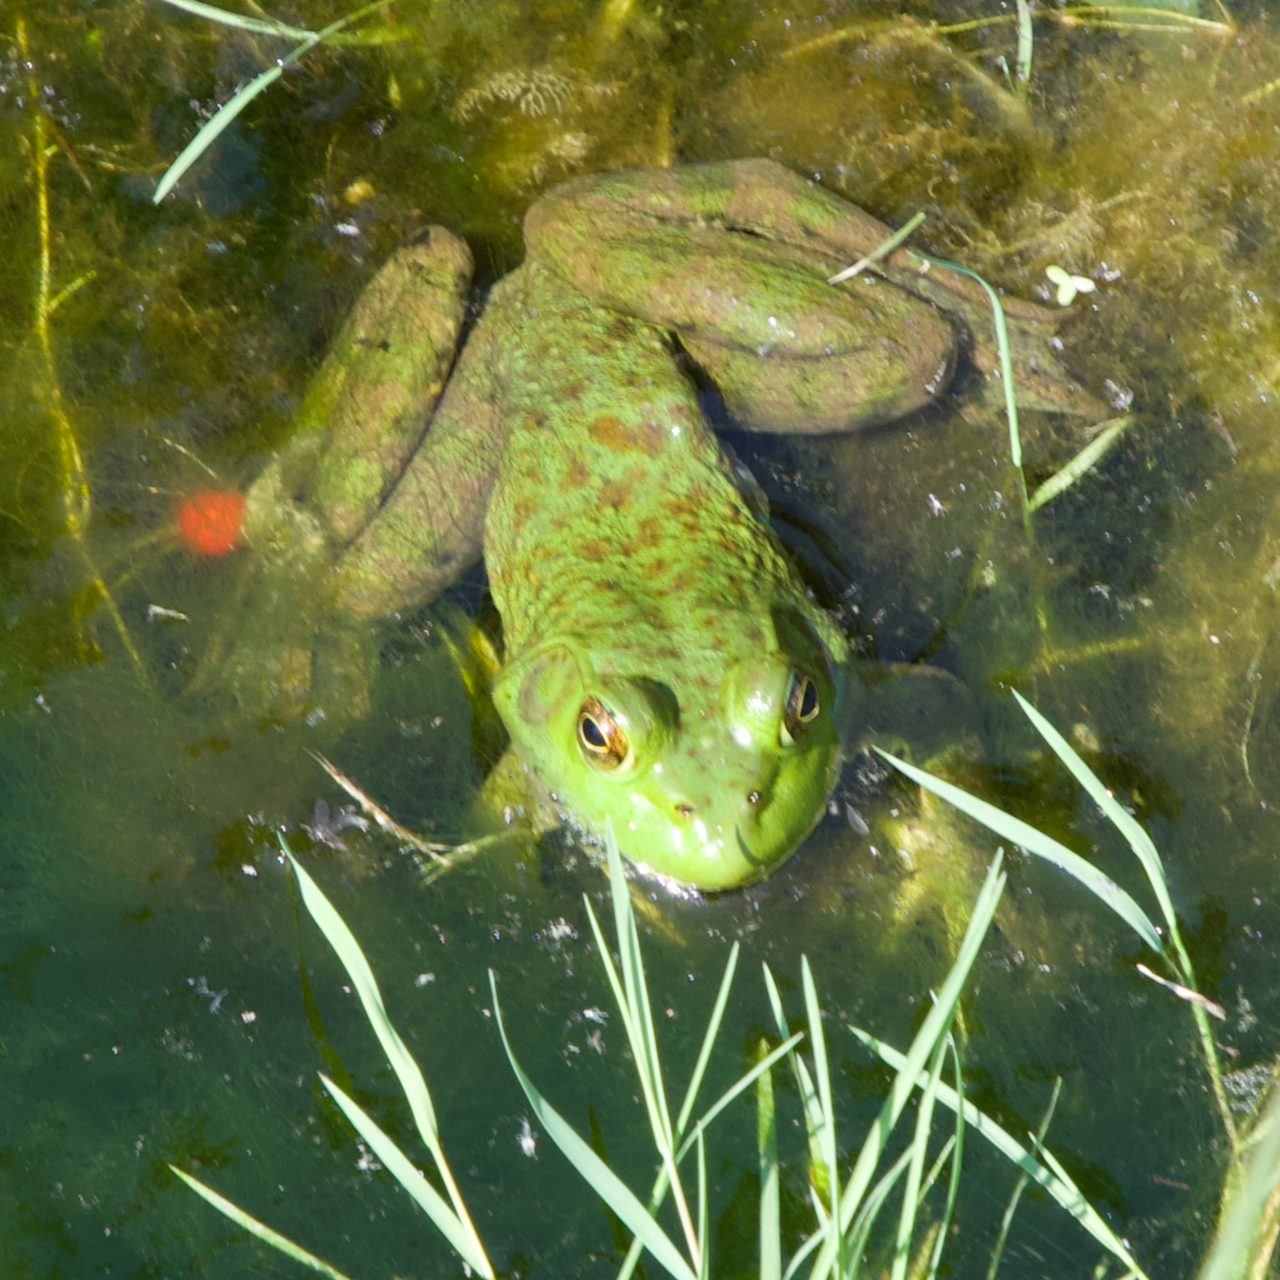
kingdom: Animalia
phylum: Chordata
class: Amphibia
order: Anura
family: Ranidae
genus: Lithobates
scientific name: Lithobates catesbeianus
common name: American bullfrog
